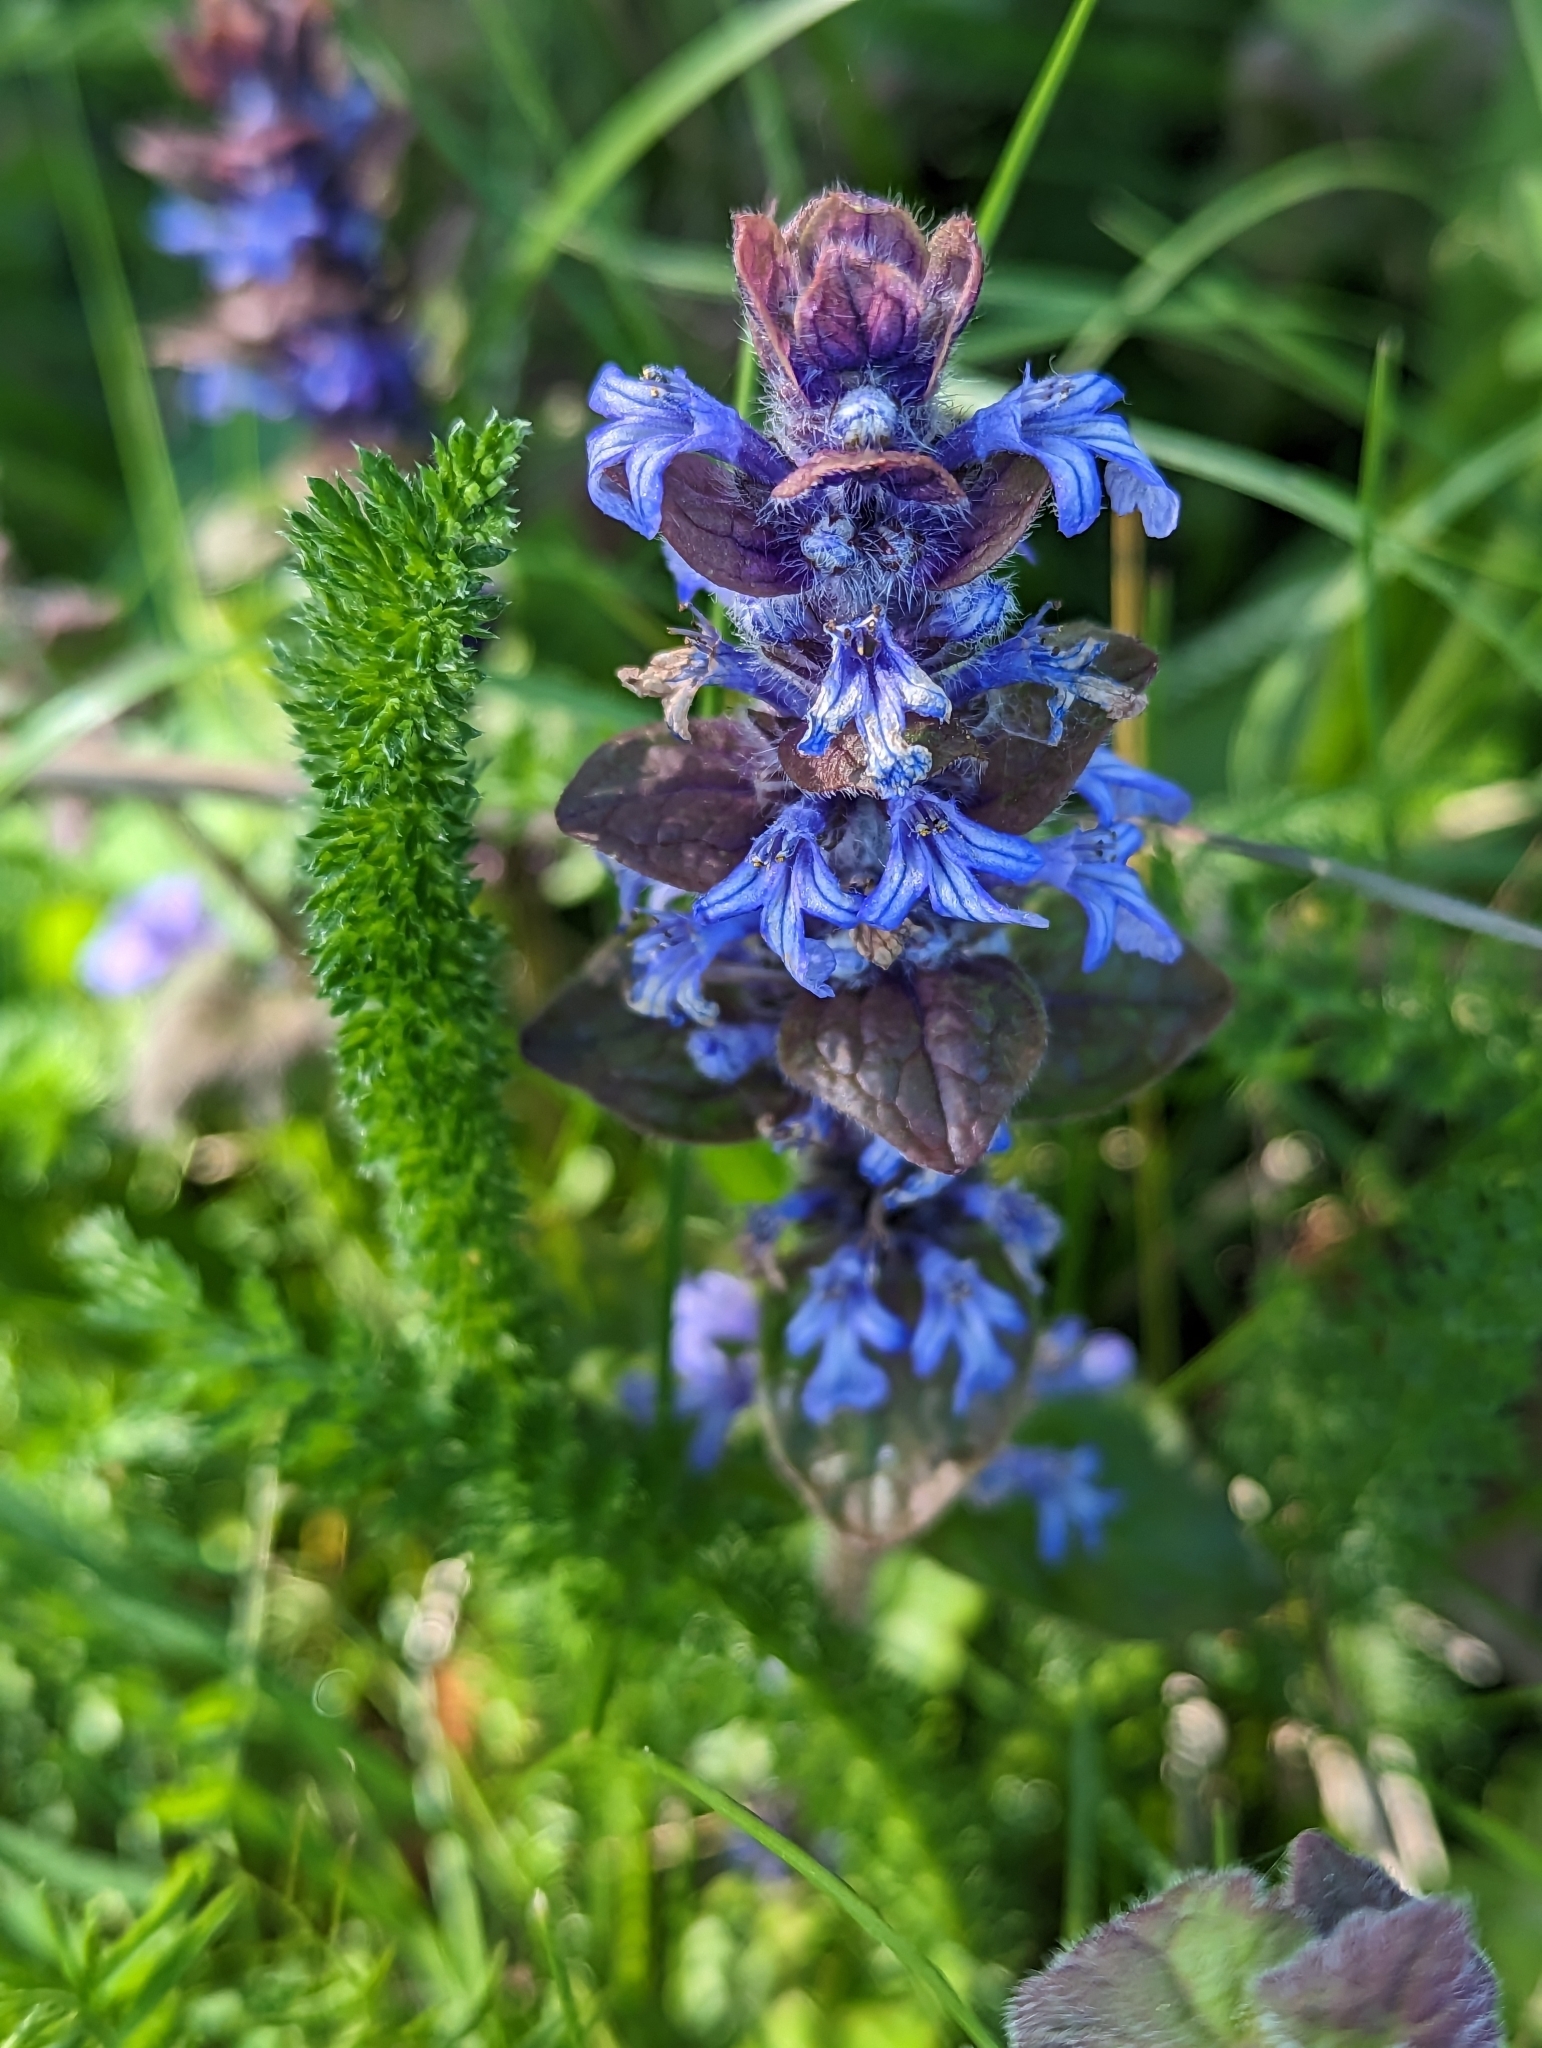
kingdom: Plantae
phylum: Tracheophyta
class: Magnoliopsida
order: Lamiales
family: Lamiaceae
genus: Ajuga
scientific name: Ajuga reptans
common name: Bugle
